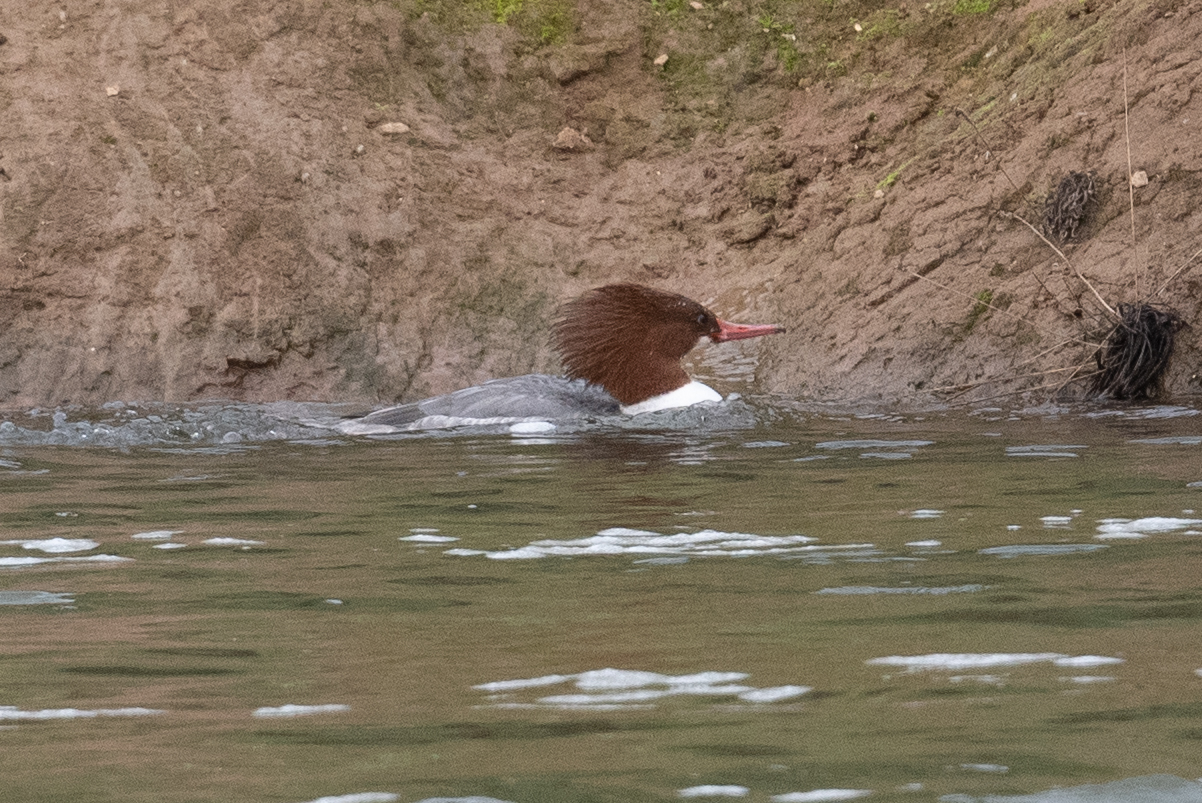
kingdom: Animalia
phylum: Chordata
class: Aves
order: Anseriformes
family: Anatidae
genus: Mergus
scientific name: Mergus merganser
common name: Common merganser
